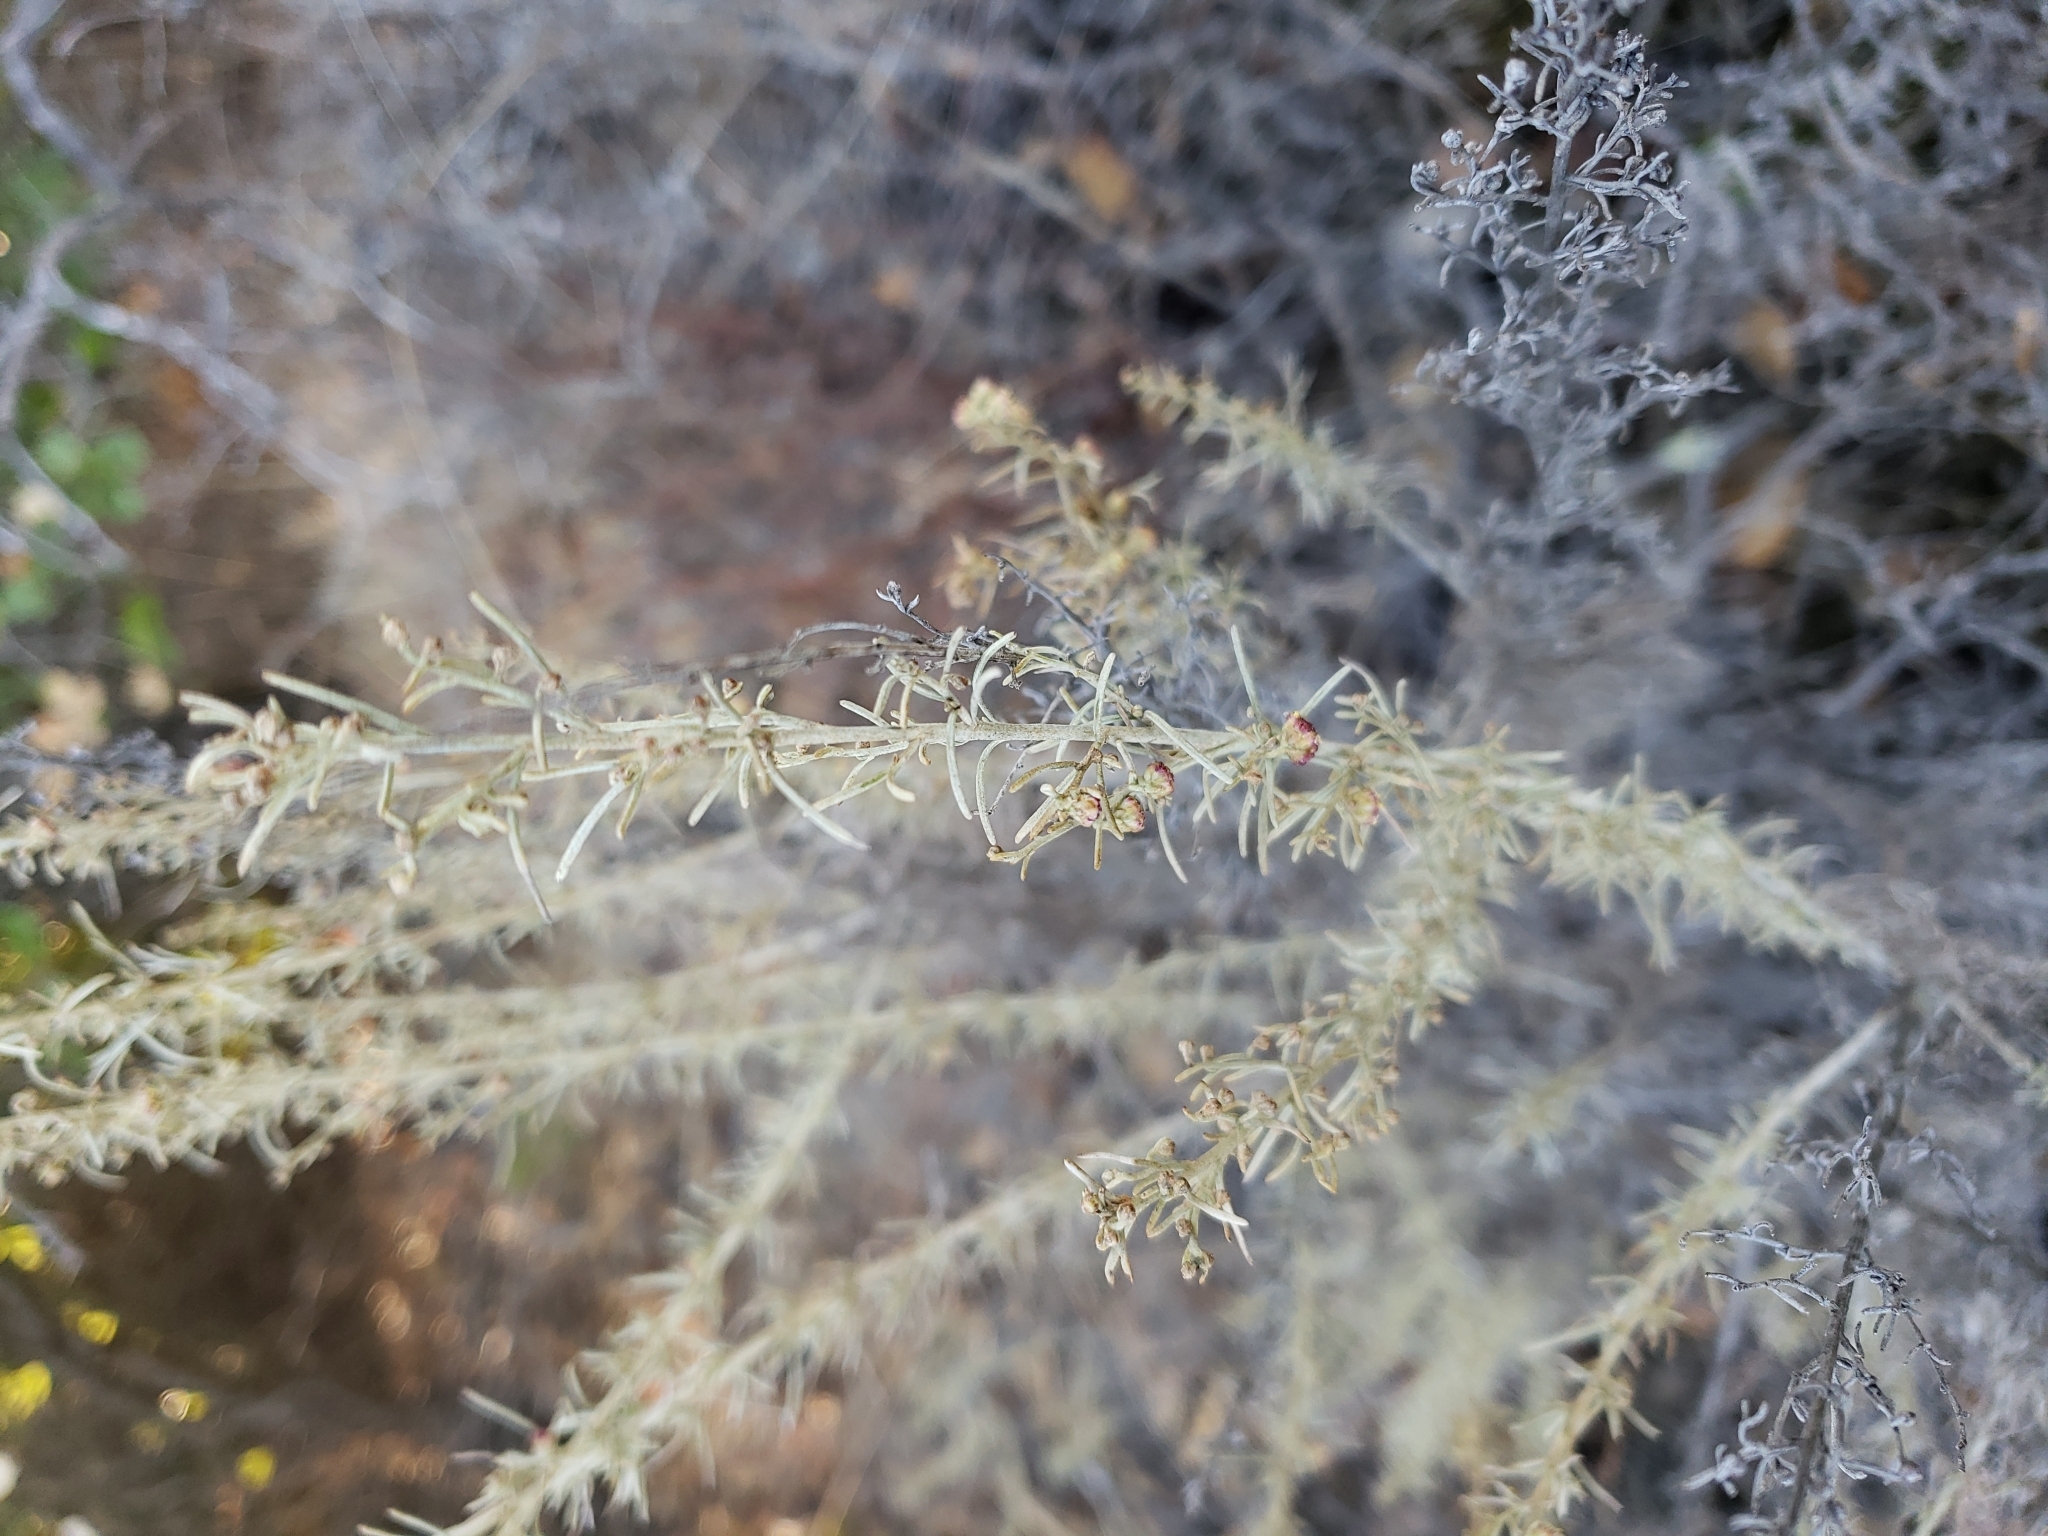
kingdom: Plantae
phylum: Tracheophyta
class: Magnoliopsida
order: Asterales
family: Asteraceae
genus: Artemisia
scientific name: Artemisia californica
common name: California sagebrush
